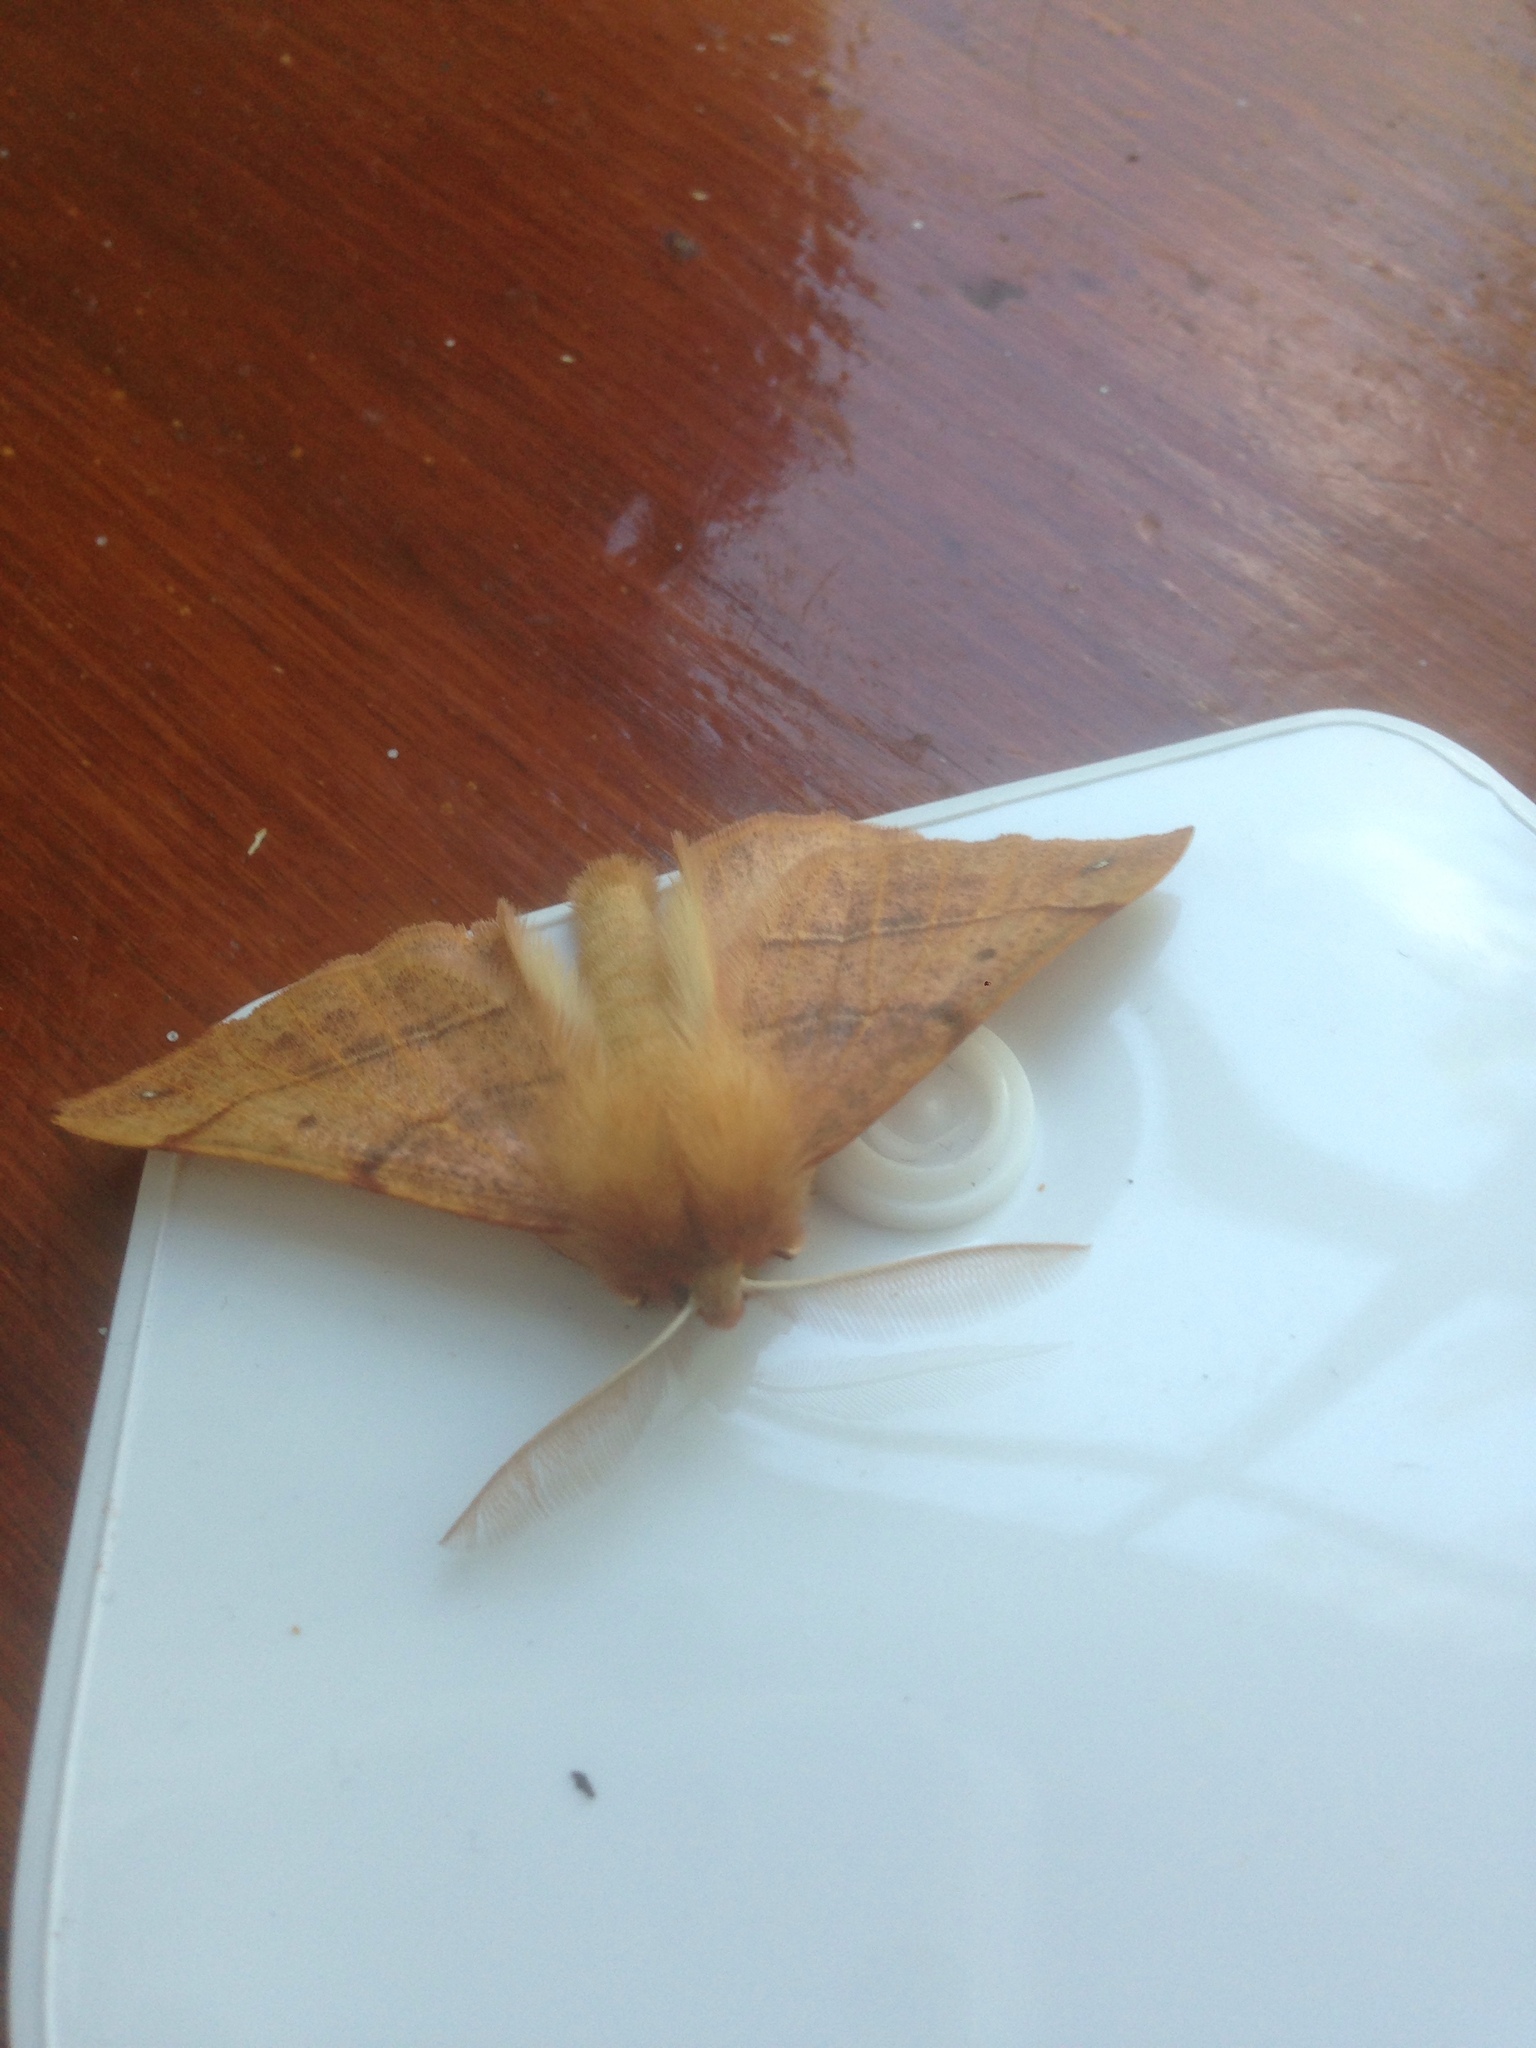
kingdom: Animalia
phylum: Arthropoda
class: Insecta
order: Lepidoptera
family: Geometridae
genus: Colotois
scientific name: Colotois pennaria
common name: Feathered thorn
